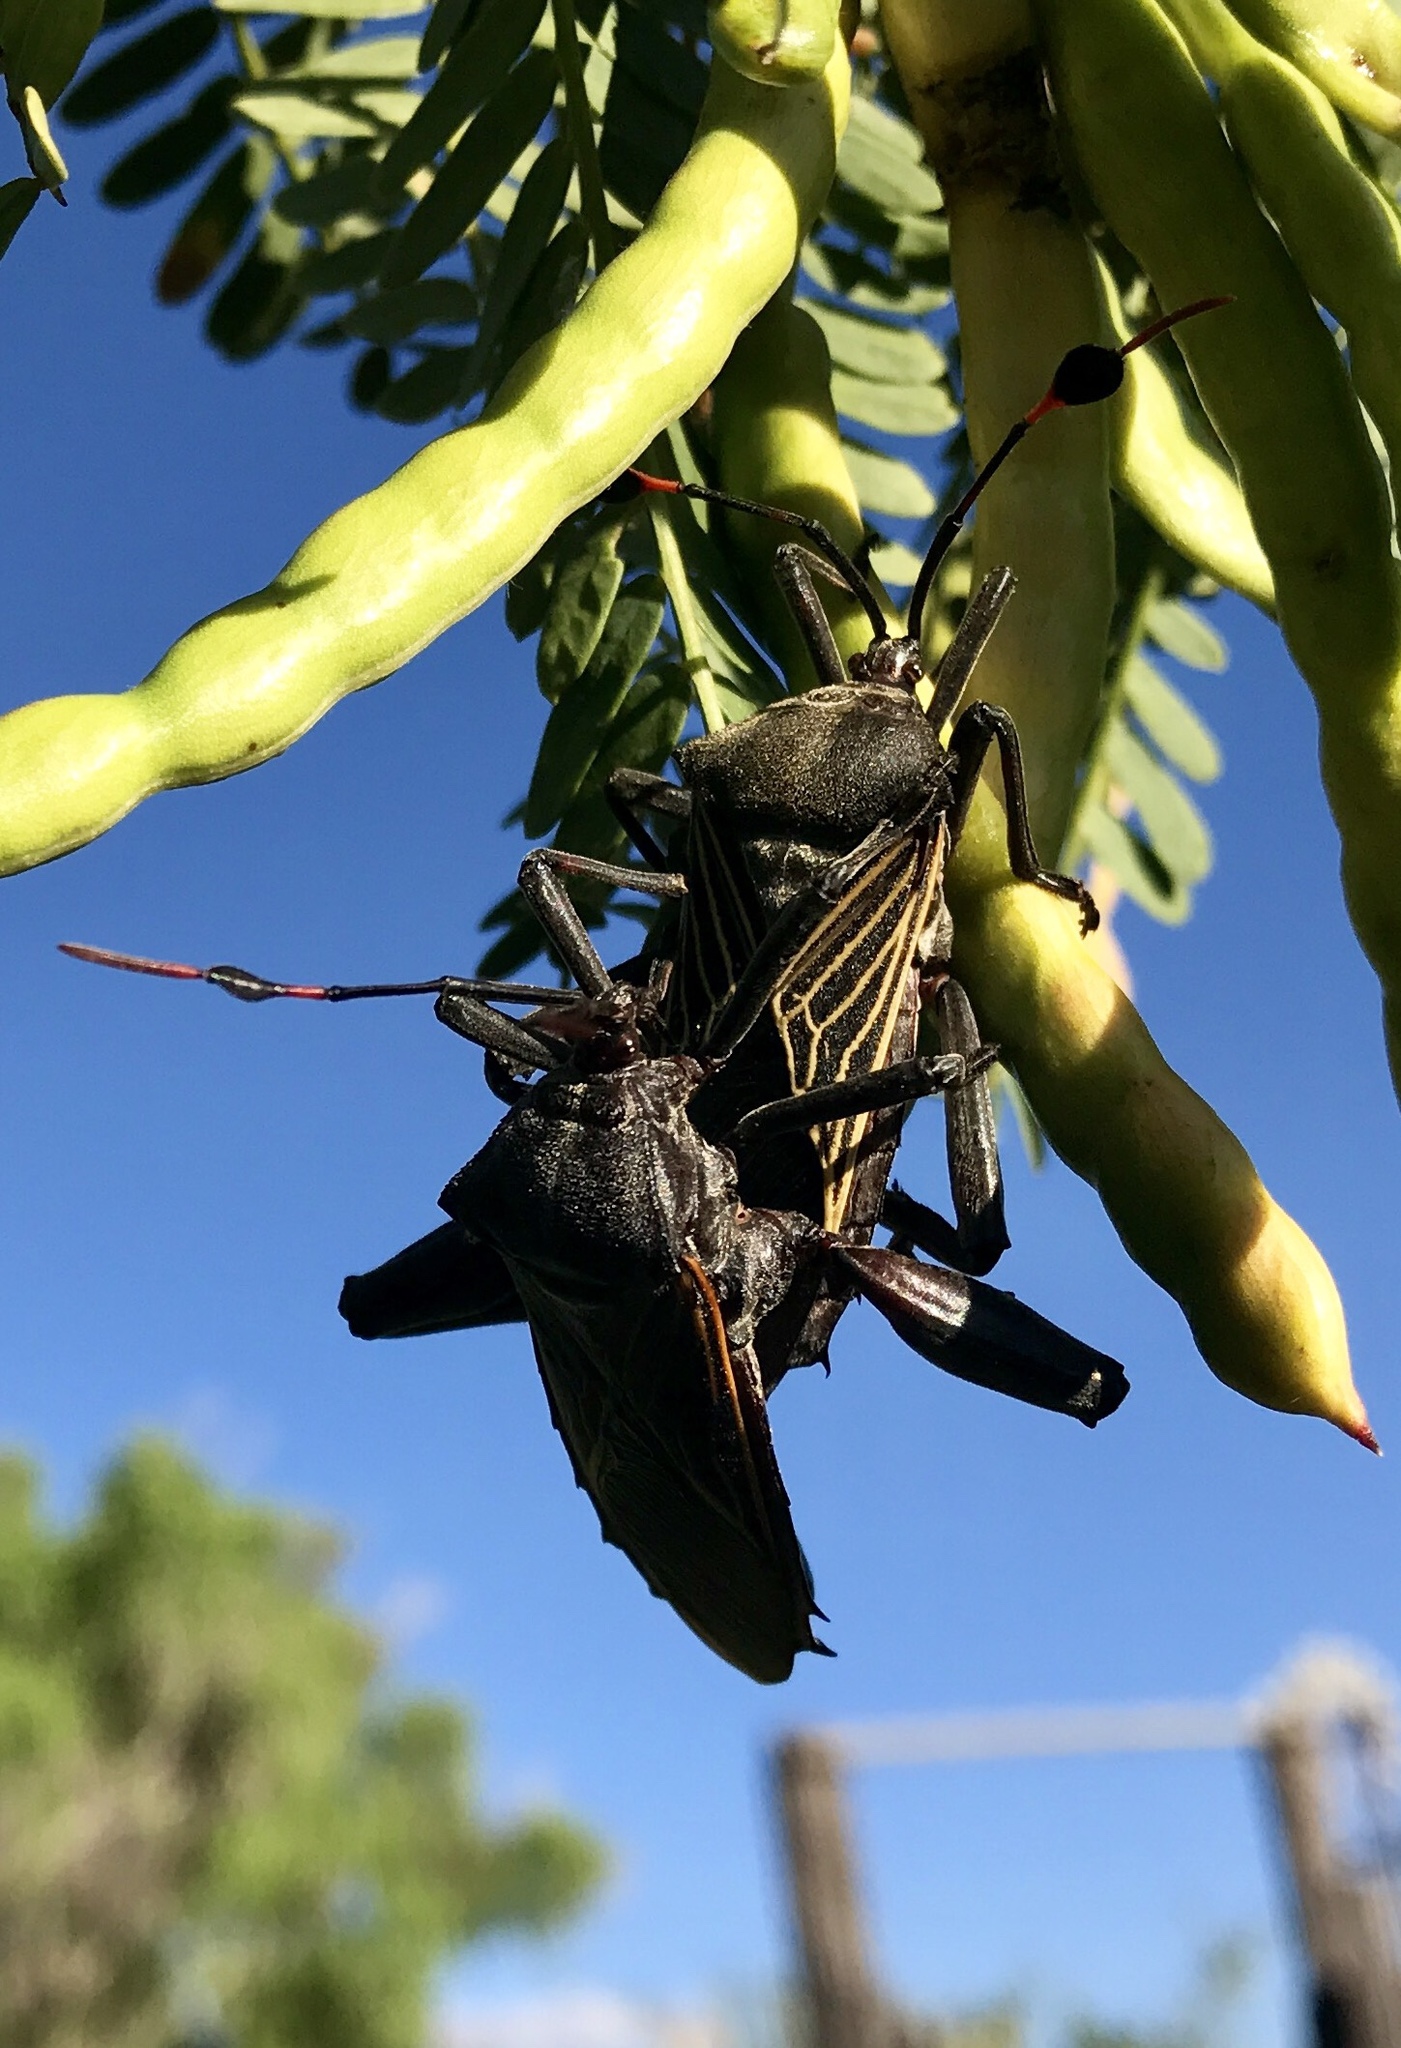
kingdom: Animalia
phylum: Arthropoda
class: Insecta
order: Hemiptera
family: Coreidae
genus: Thasus
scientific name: Thasus neocalifornicus
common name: Giant mesquite bug
